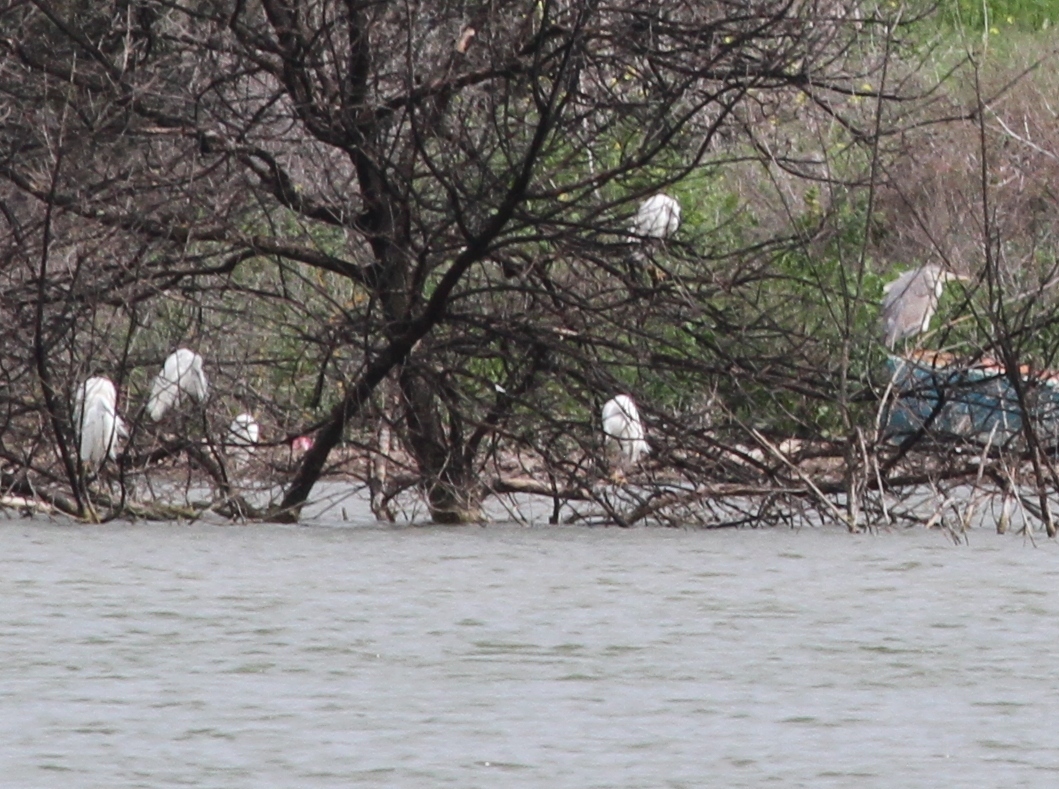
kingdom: Animalia
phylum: Chordata
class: Aves
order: Pelecaniformes
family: Ardeidae
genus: Bubulcus
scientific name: Bubulcus ibis
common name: Cattle egret
